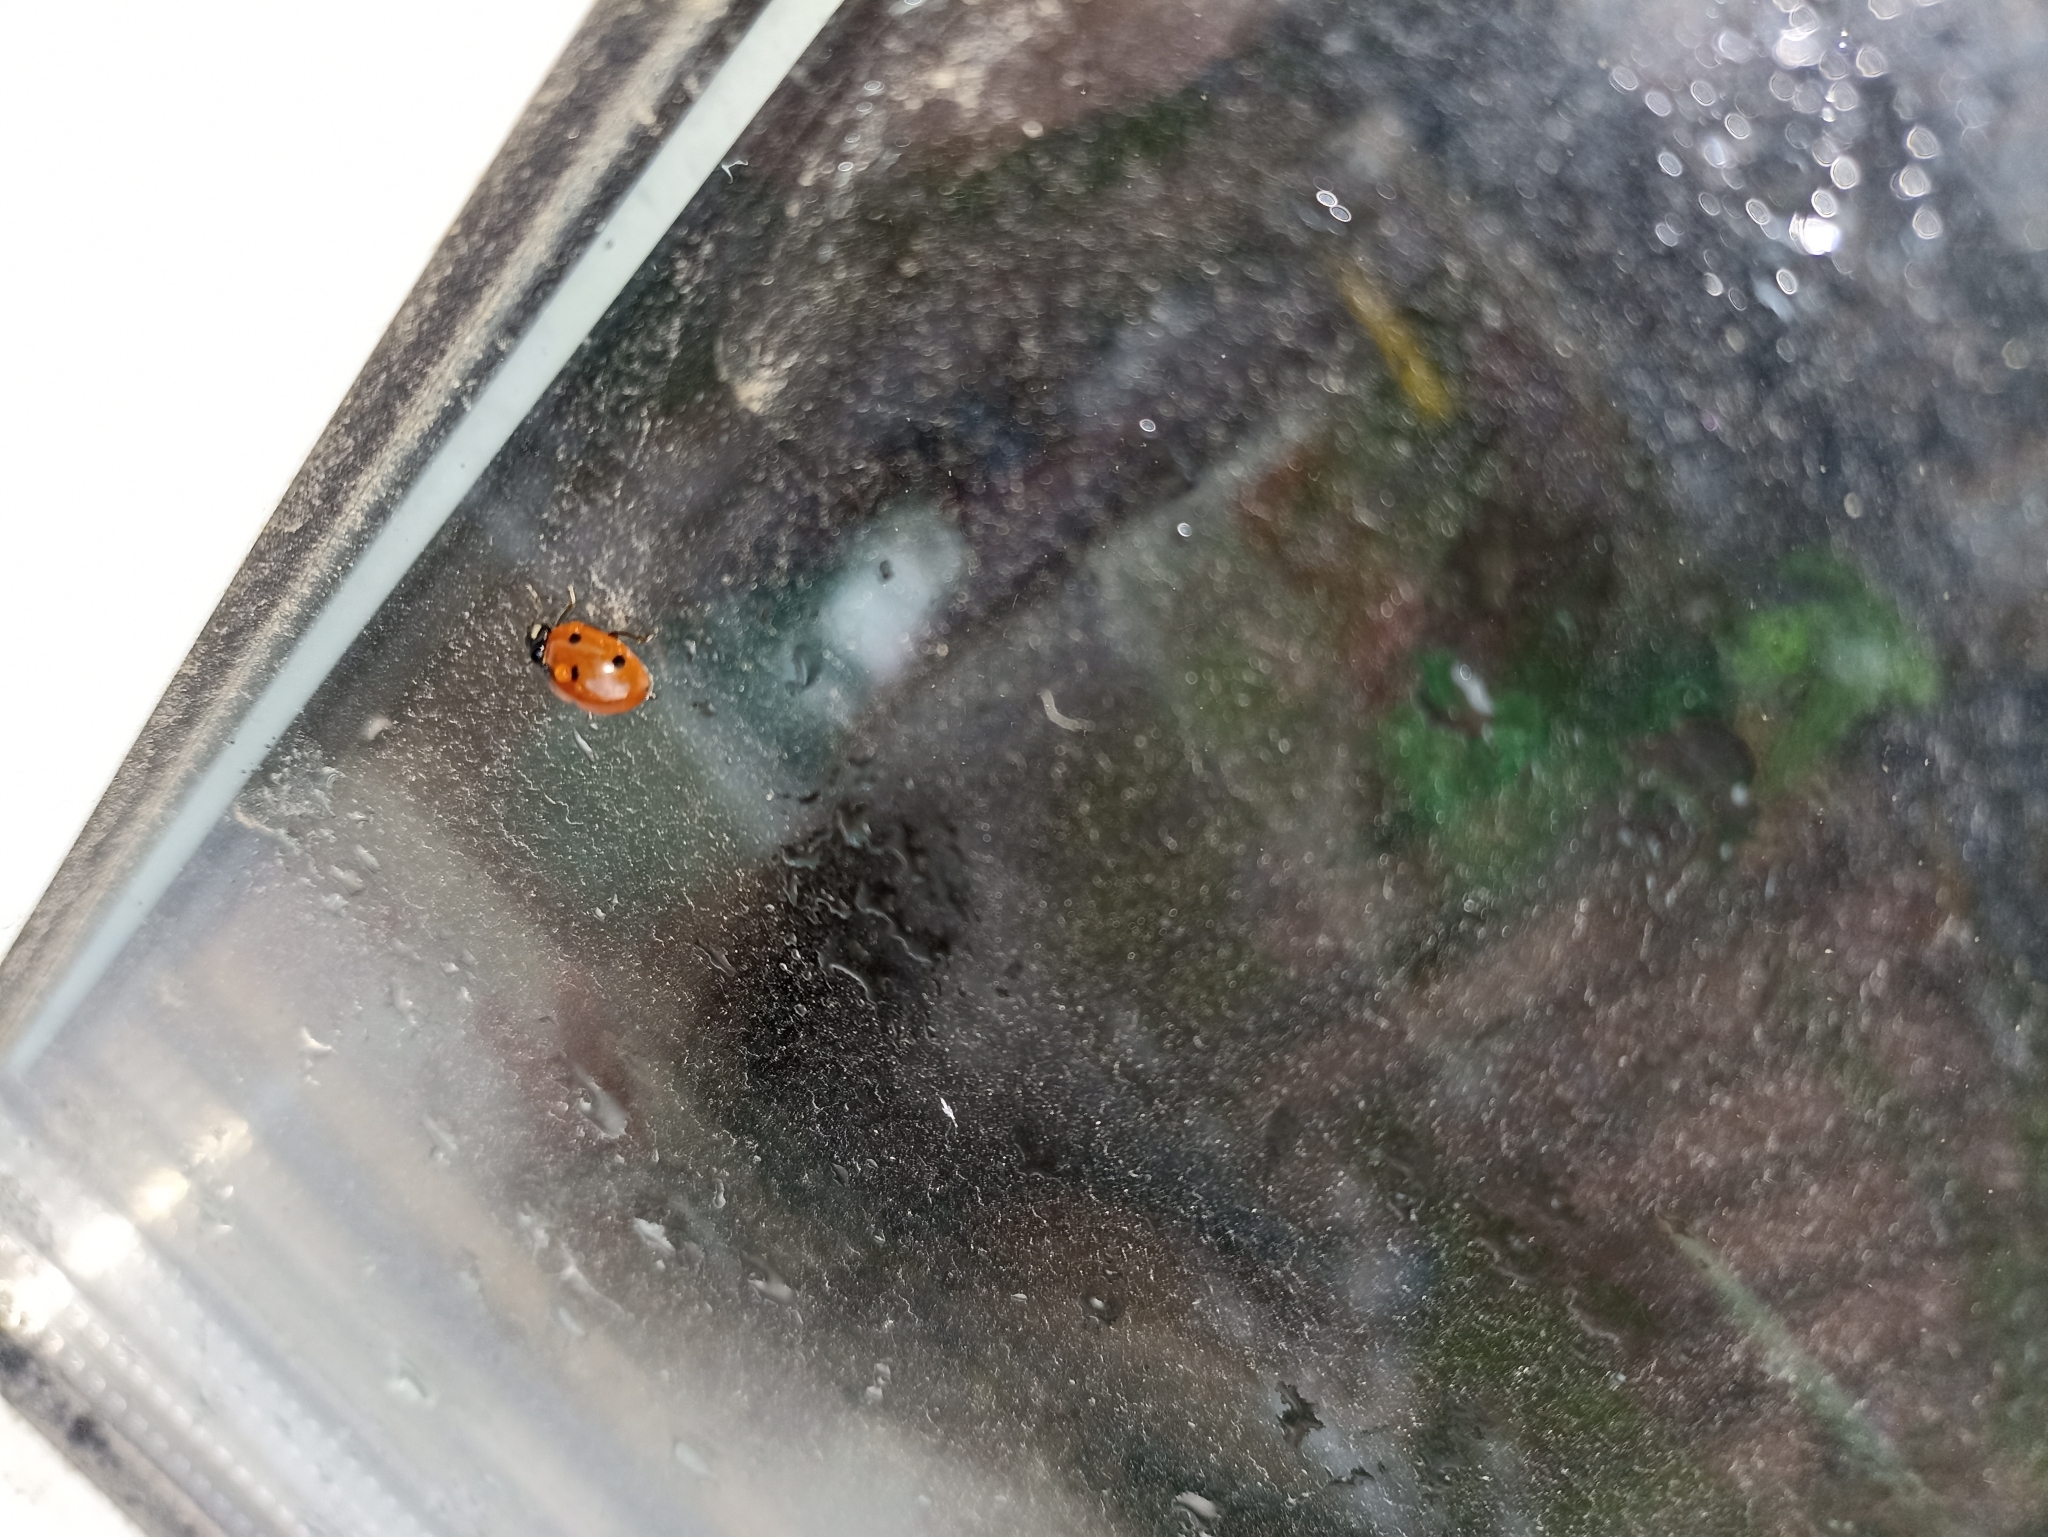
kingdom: Animalia
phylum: Arthropoda
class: Insecta
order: Coleoptera
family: Coccinellidae
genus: Coccinella
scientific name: Coccinella septempunctata
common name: Sevenspotted lady beetle
